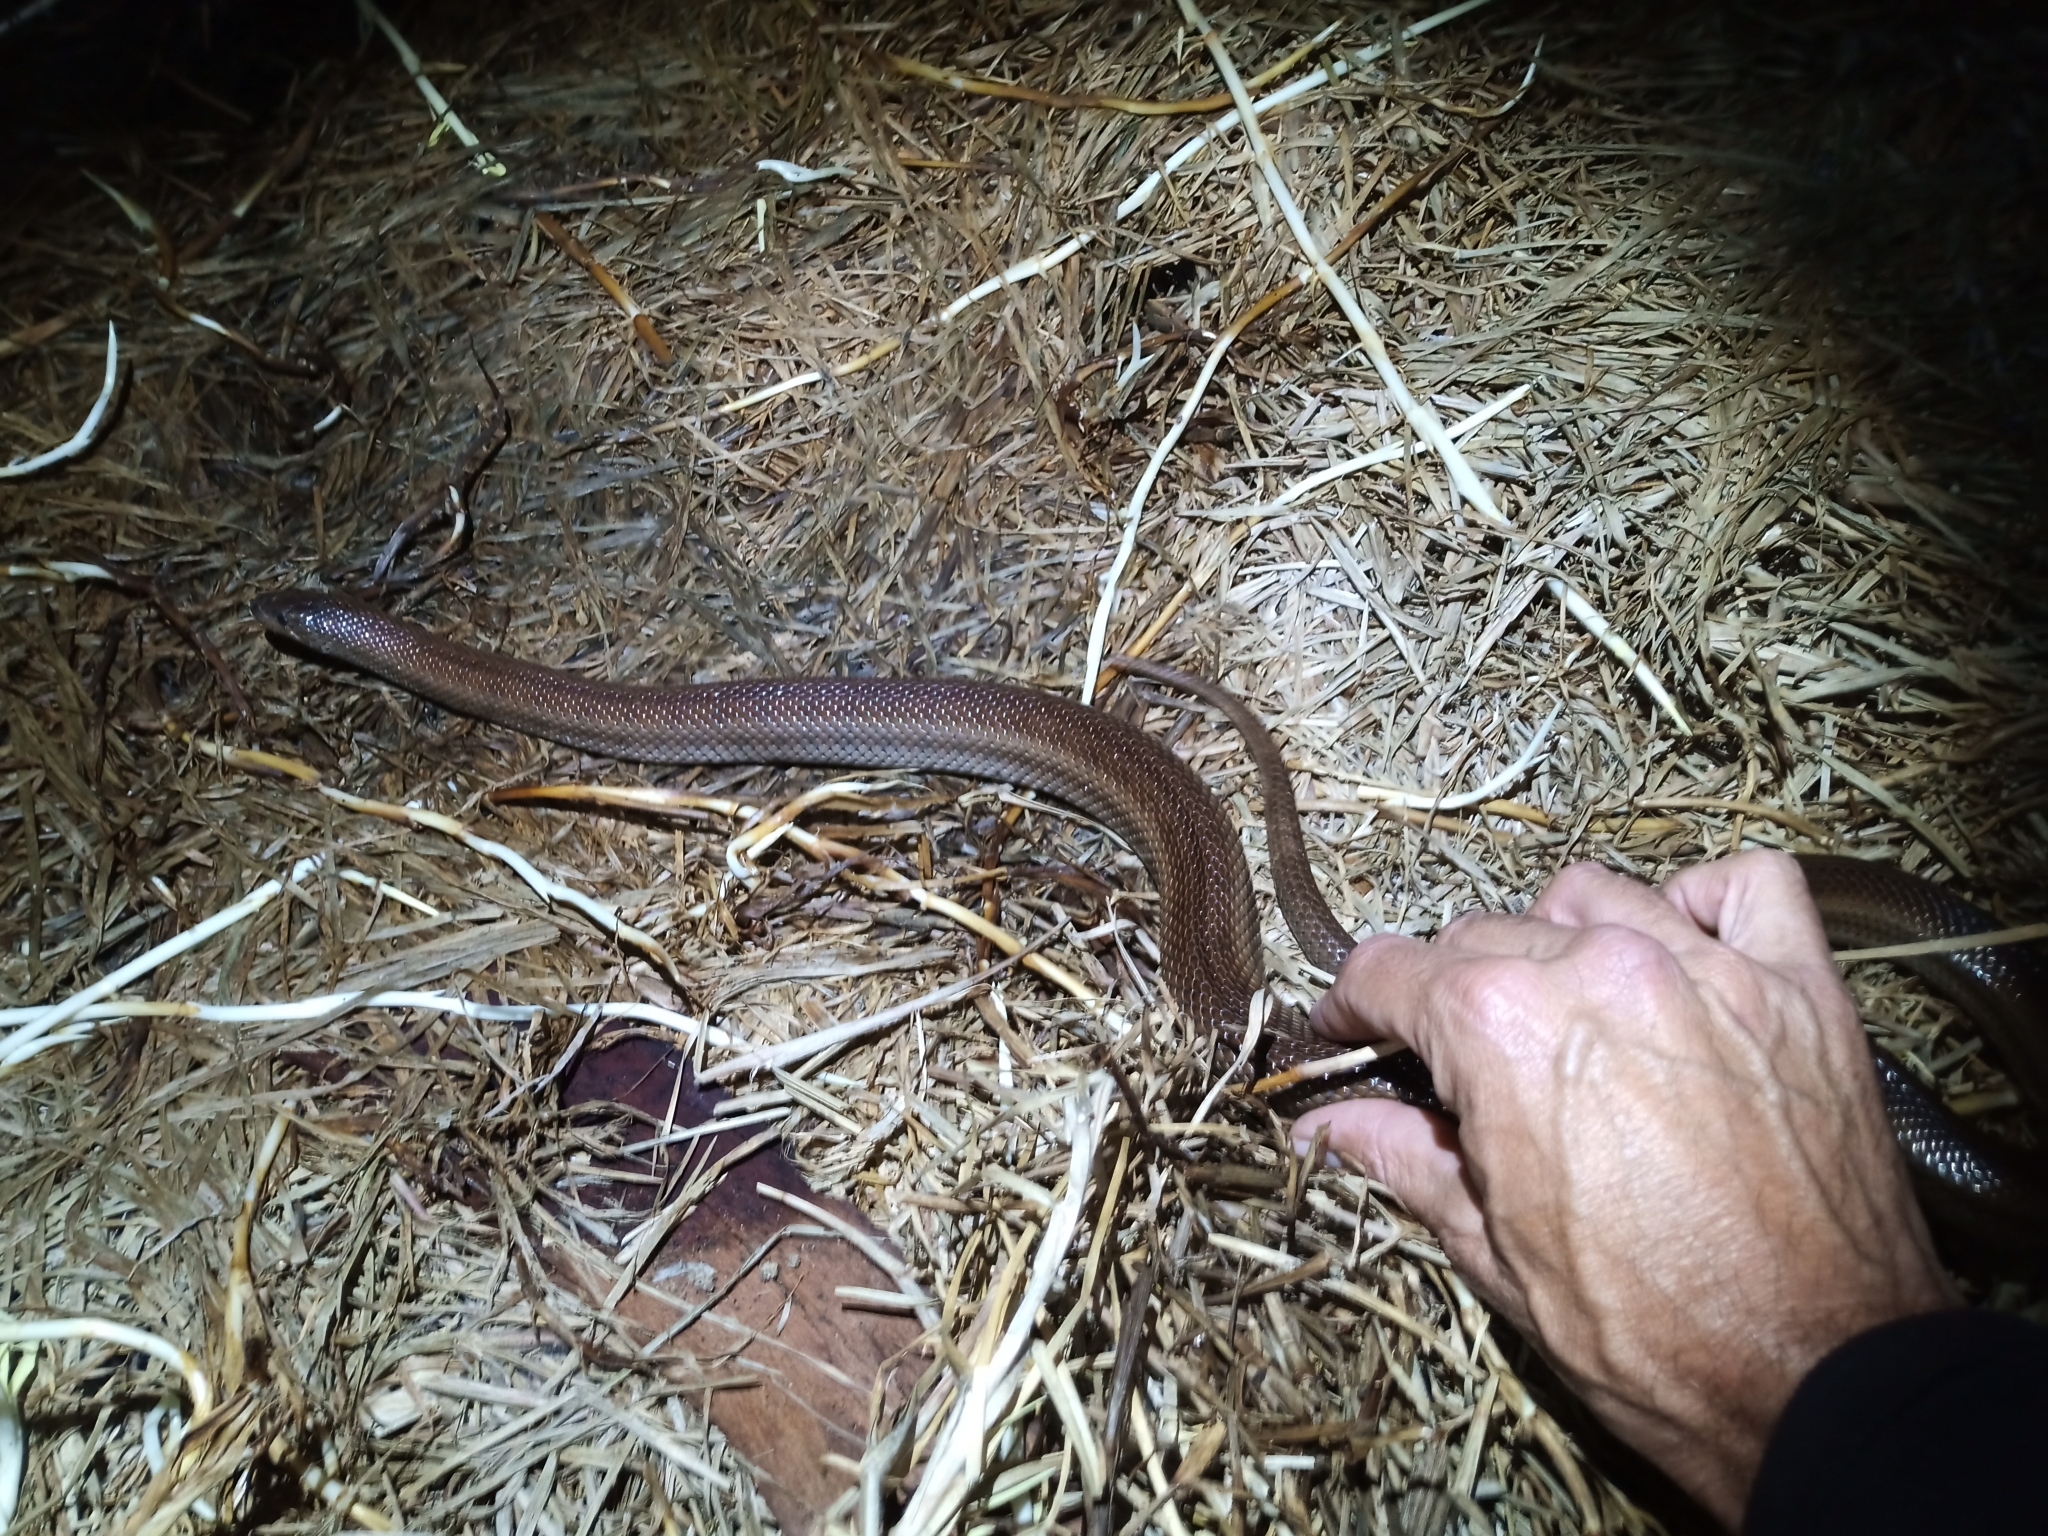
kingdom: Animalia
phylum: Chordata
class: Squamata
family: Pseudaspididae
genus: Pseudaspis
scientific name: Pseudaspis cana
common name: Mole snake
